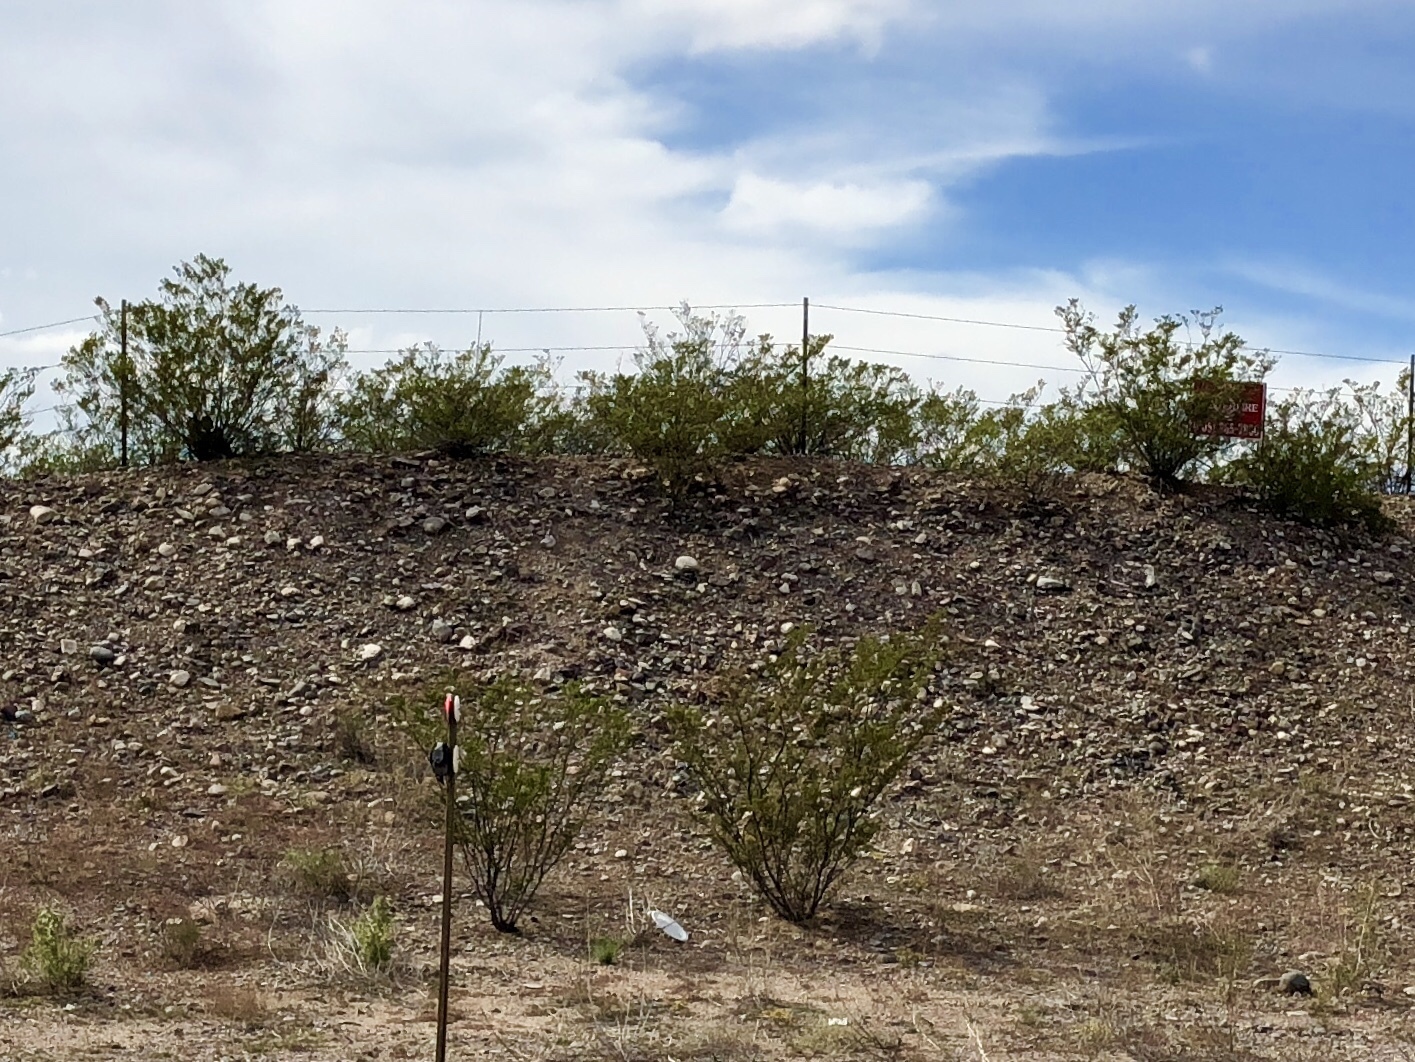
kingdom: Plantae
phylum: Tracheophyta
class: Magnoliopsida
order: Zygophyllales
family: Zygophyllaceae
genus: Larrea
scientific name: Larrea tridentata
